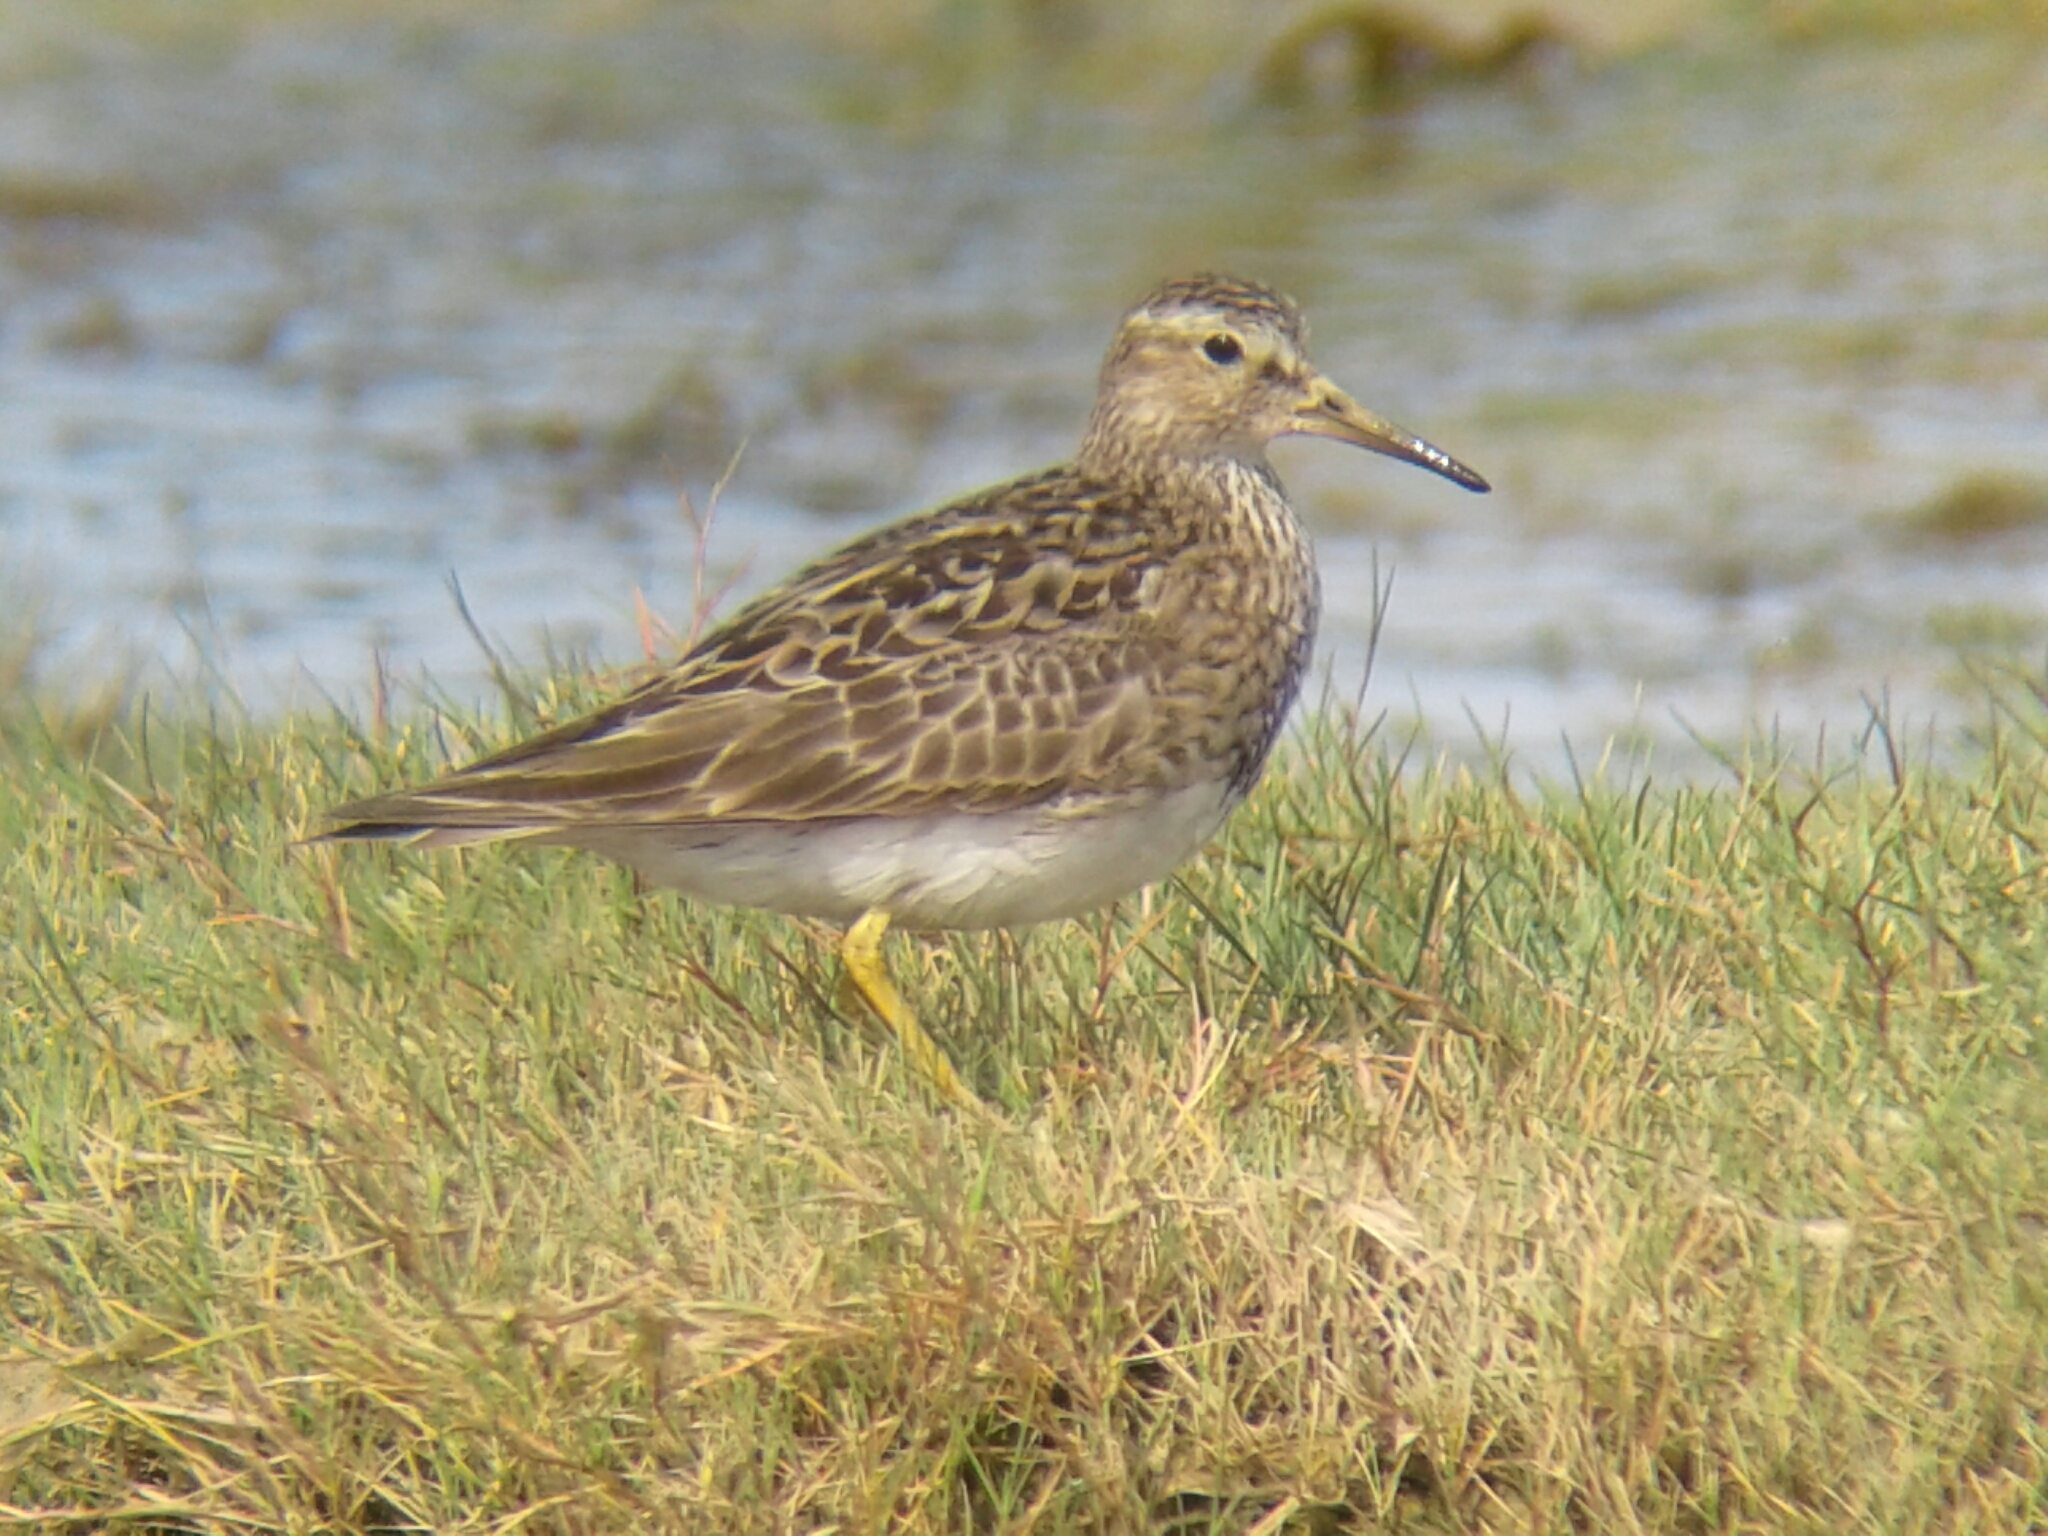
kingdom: Animalia
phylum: Chordata
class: Aves
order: Charadriiformes
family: Scolopacidae
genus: Calidris
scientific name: Calidris melanotos
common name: Pectoral sandpiper
